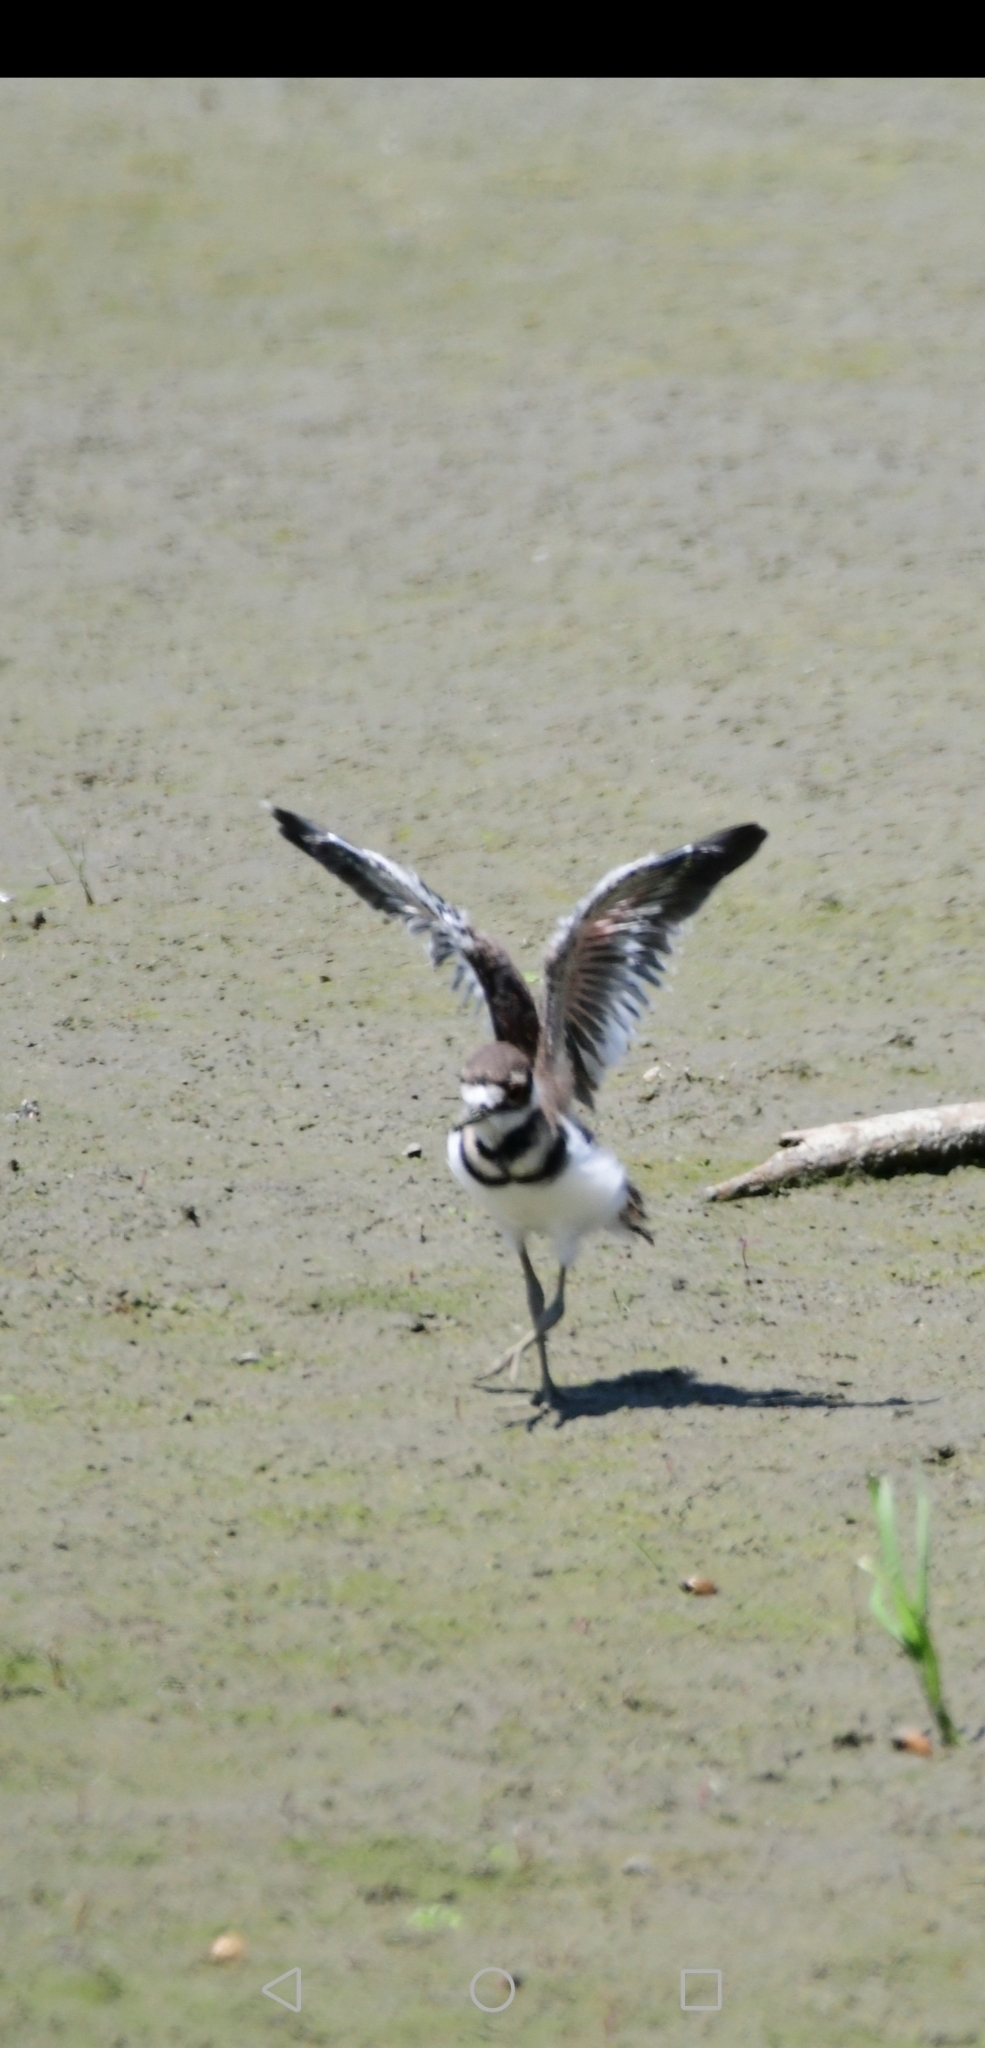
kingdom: Animalia
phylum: Chordata
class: Aves
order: Charadriiformes
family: Charadriidae
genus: Charadrius
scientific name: Charadrius vociferus
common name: Killdeer
